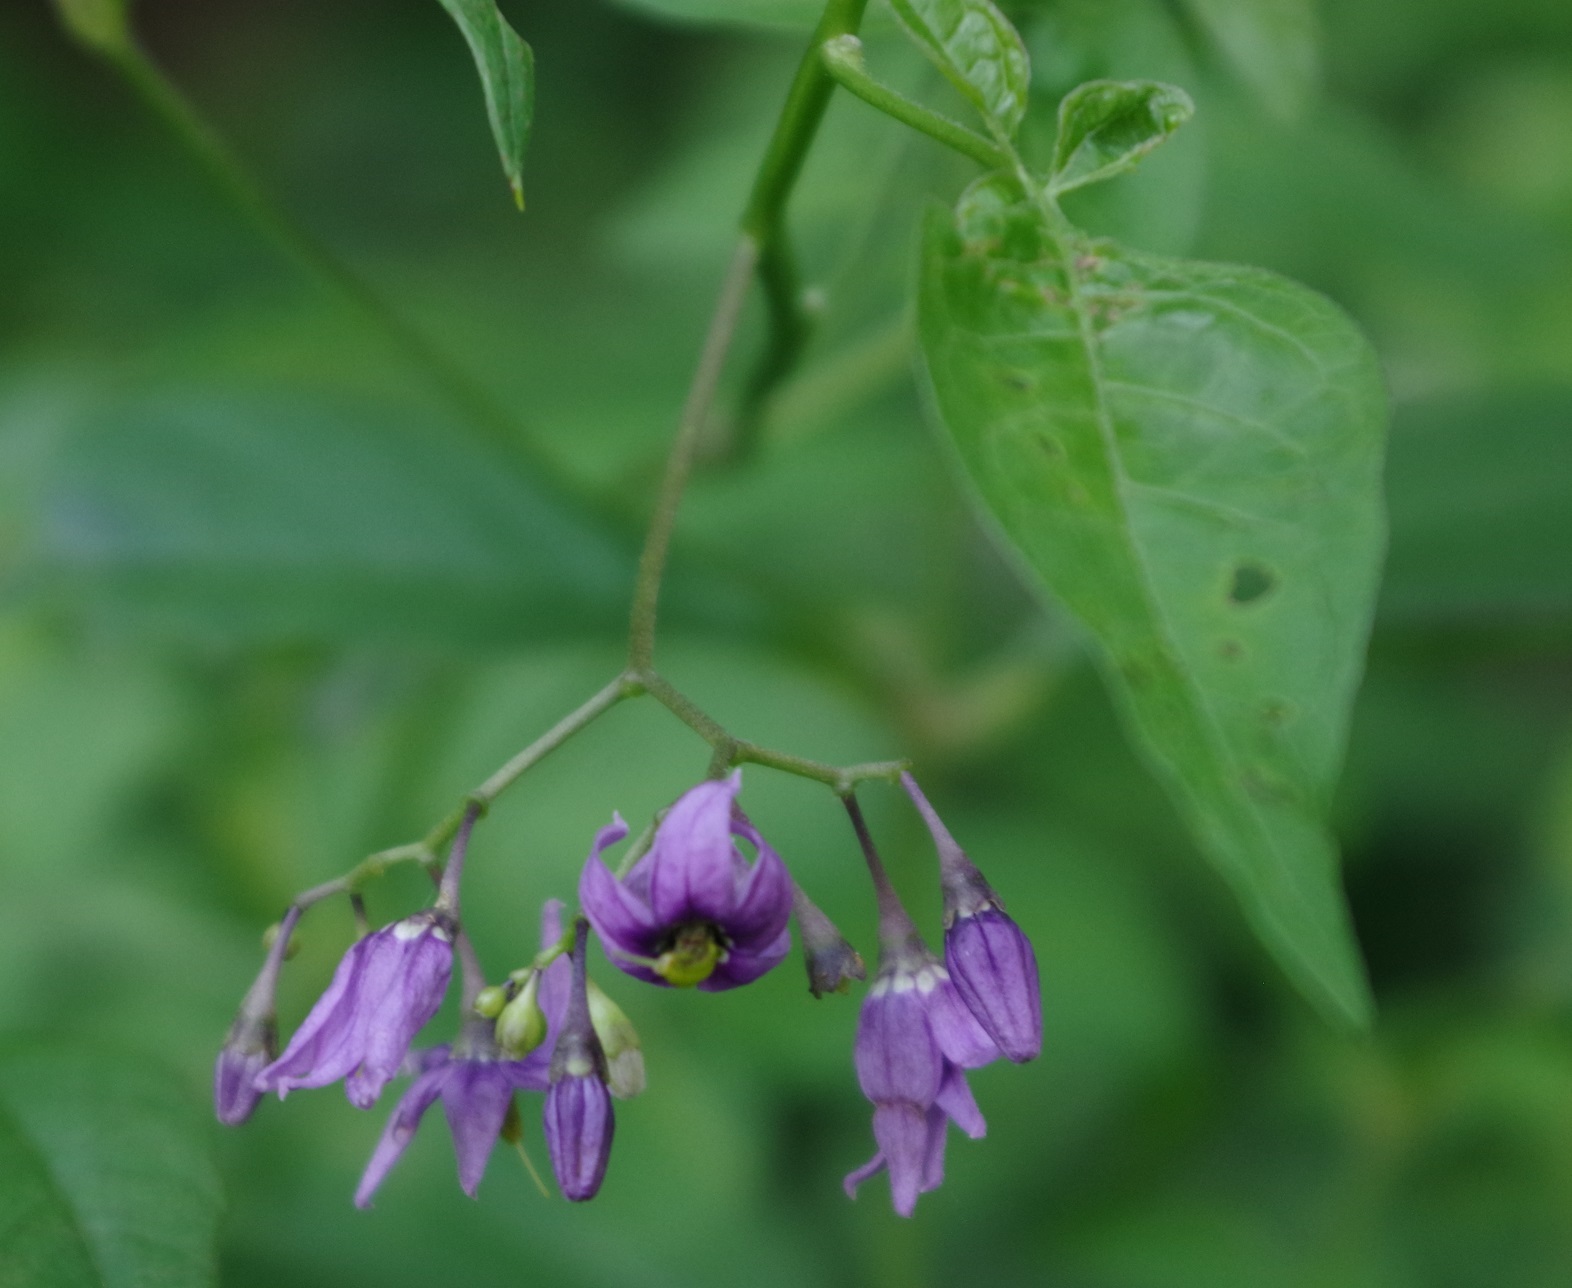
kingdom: Plantae
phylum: Tracheophyta
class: Magnoliopsida
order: Solanales
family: Solanaceae
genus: Solanum
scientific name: Solanum dulcamara
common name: Climbing nightshade
